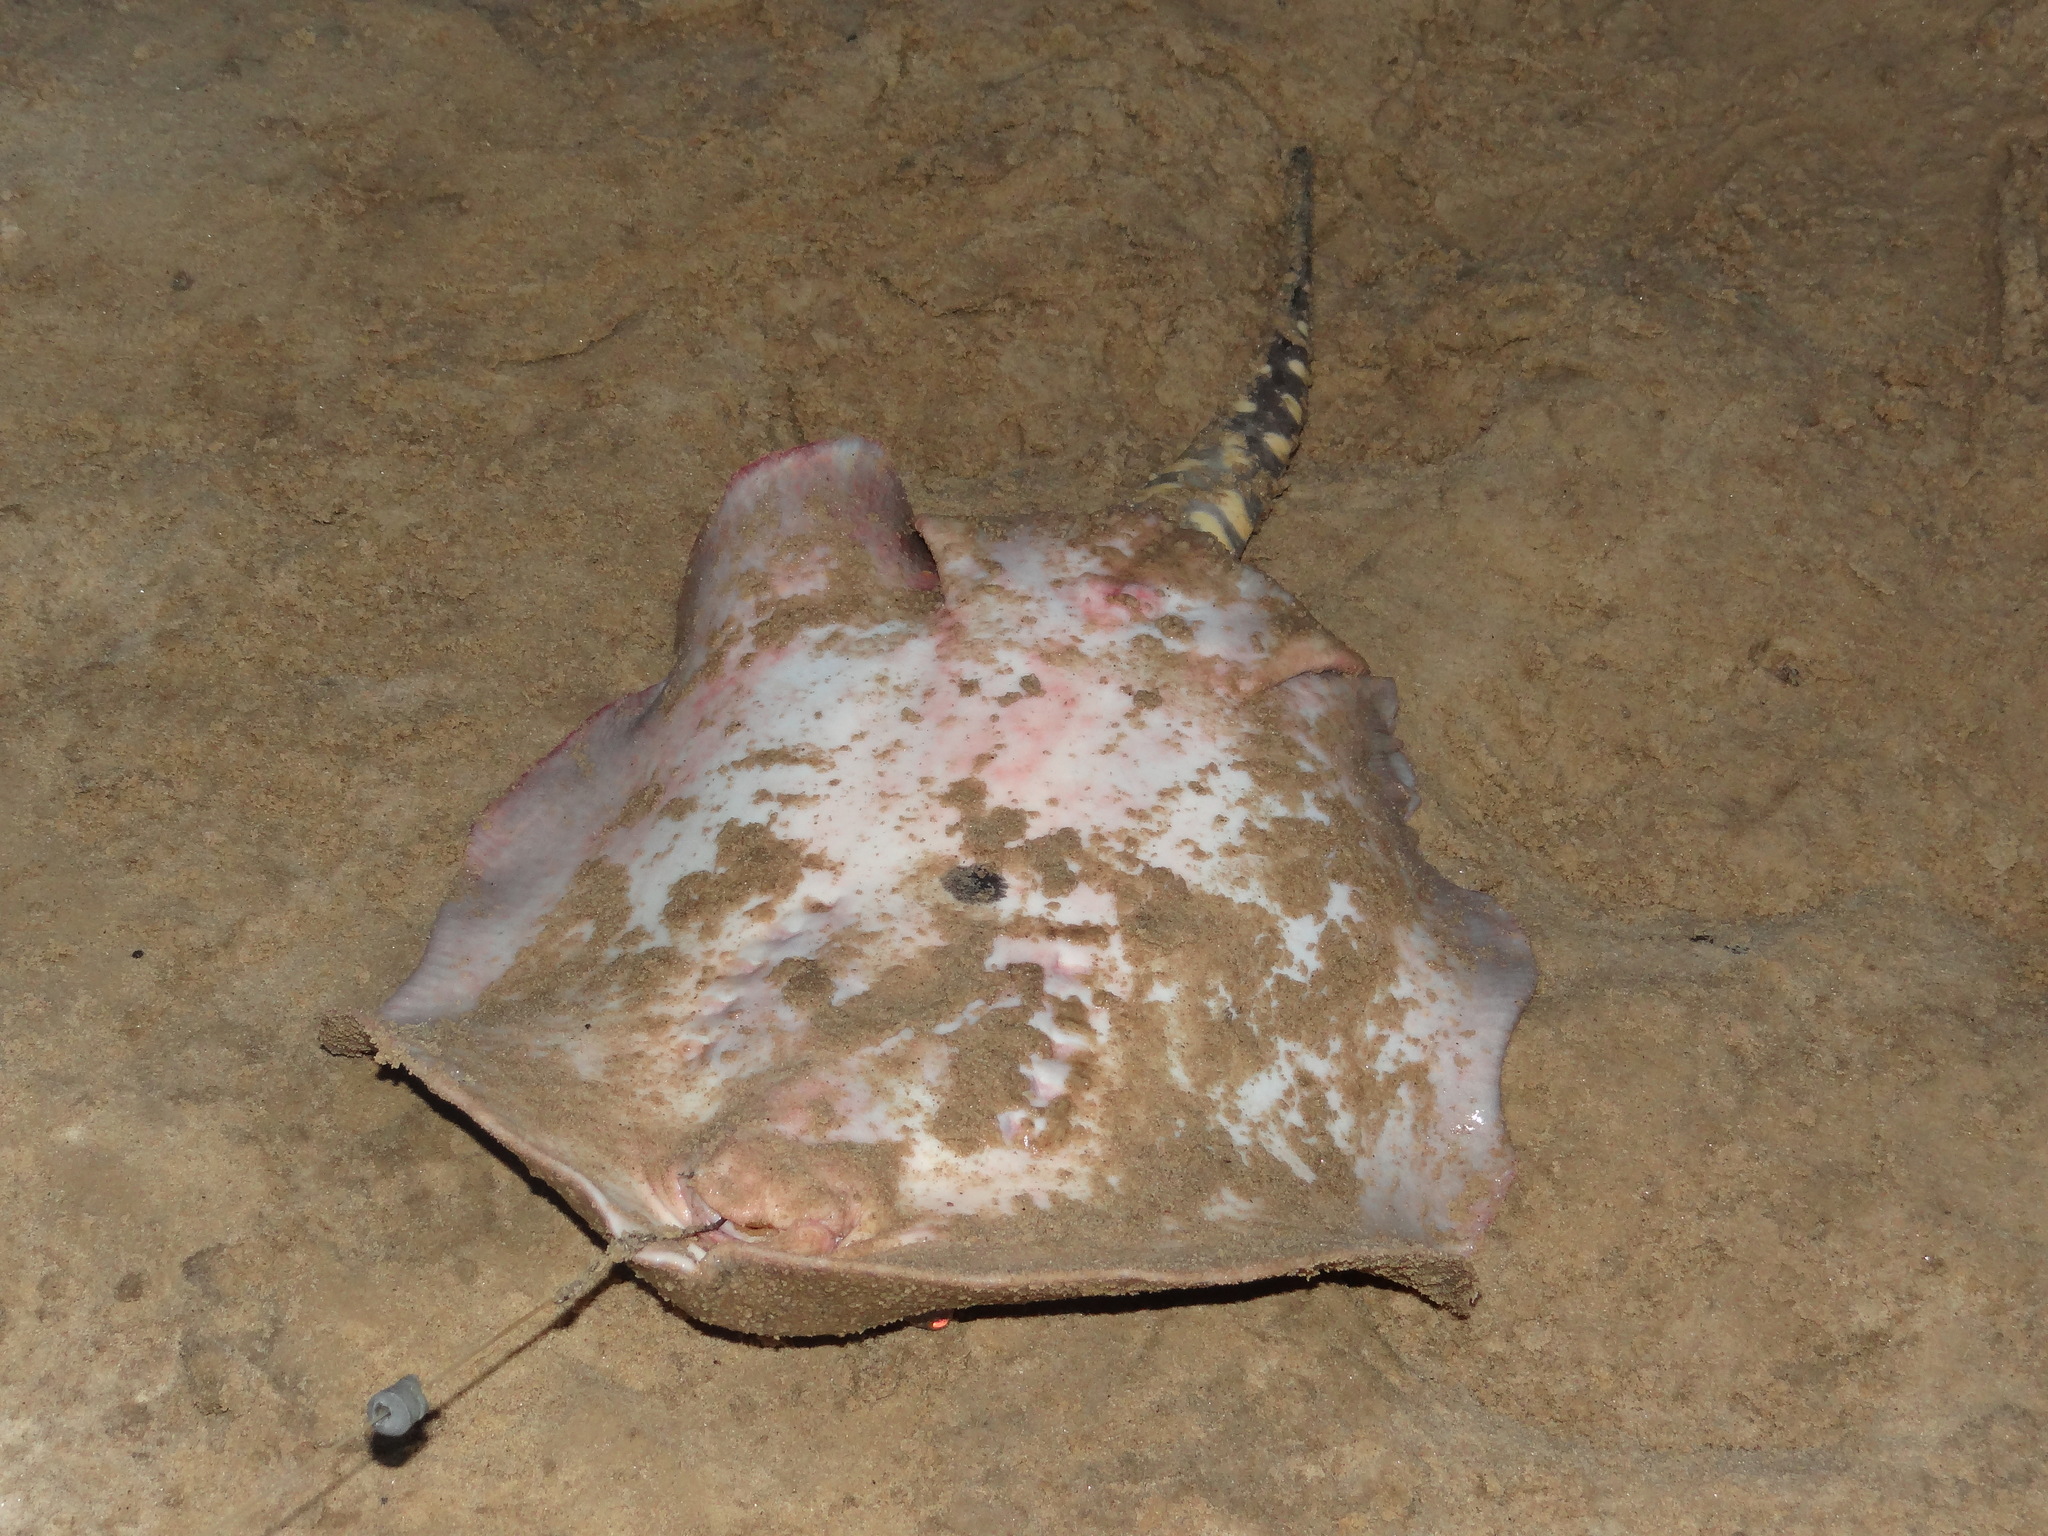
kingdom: Animalia
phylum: Chordata
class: Elasmobranchii
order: Myliobatiformes
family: Potamotrygonidae
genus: Potamotrygon
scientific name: Potamotrygon orbignyi
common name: Anglespot river stingray
